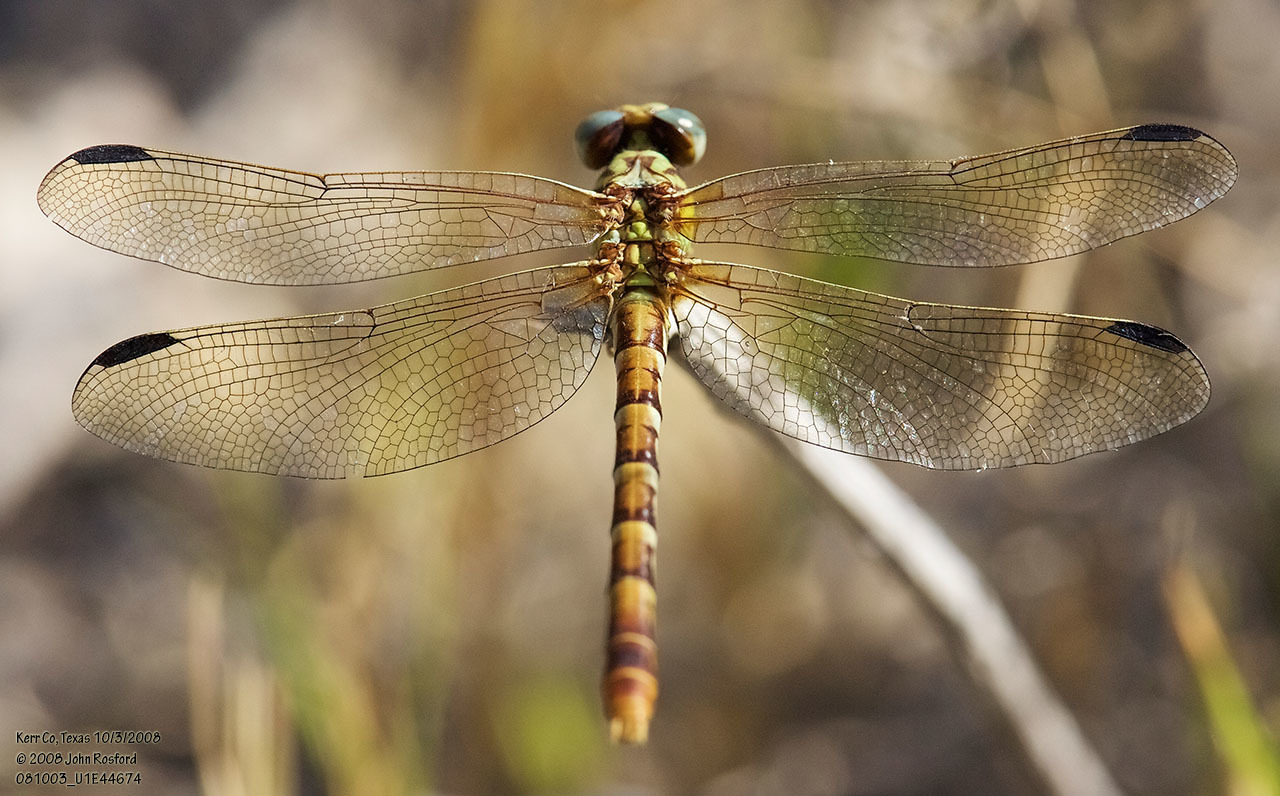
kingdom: Animalia
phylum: Arthropoda
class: Insecta
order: Odonata
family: Gomphidae
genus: Erpetogomphus
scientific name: Erpetogomphus designatus
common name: Eastern ringtail
